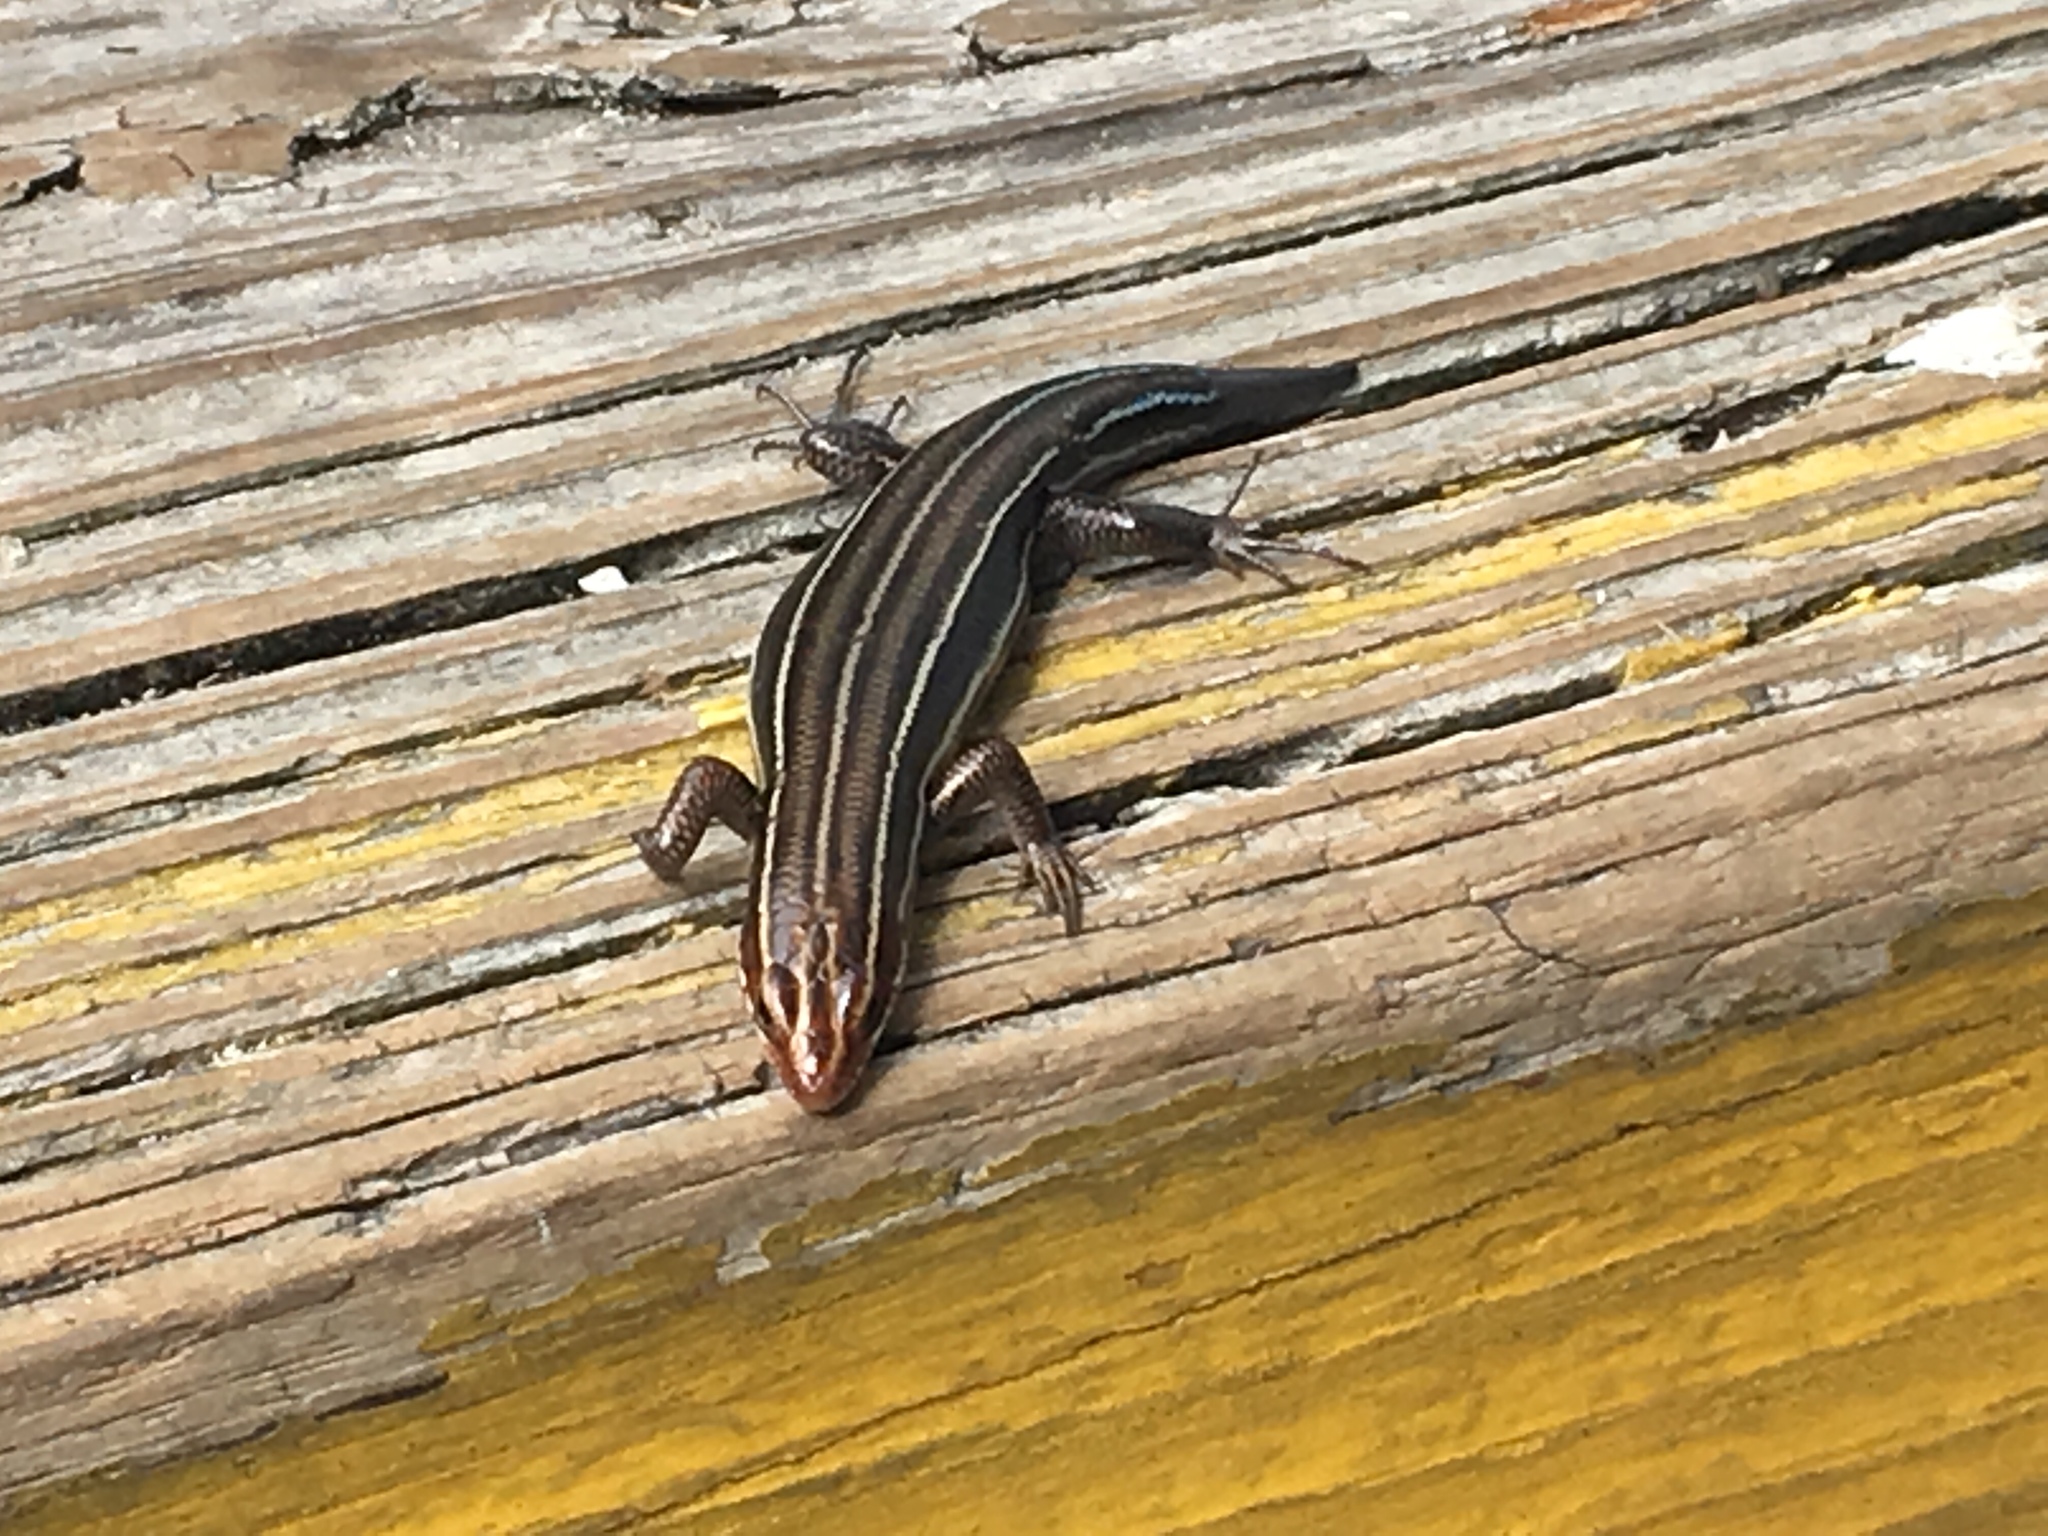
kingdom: Animalia
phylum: Chordata
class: Squamata
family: Scincidae
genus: Plestiodon
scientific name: Plestiodon inexpectatus
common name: Southeastern five-lined skink
